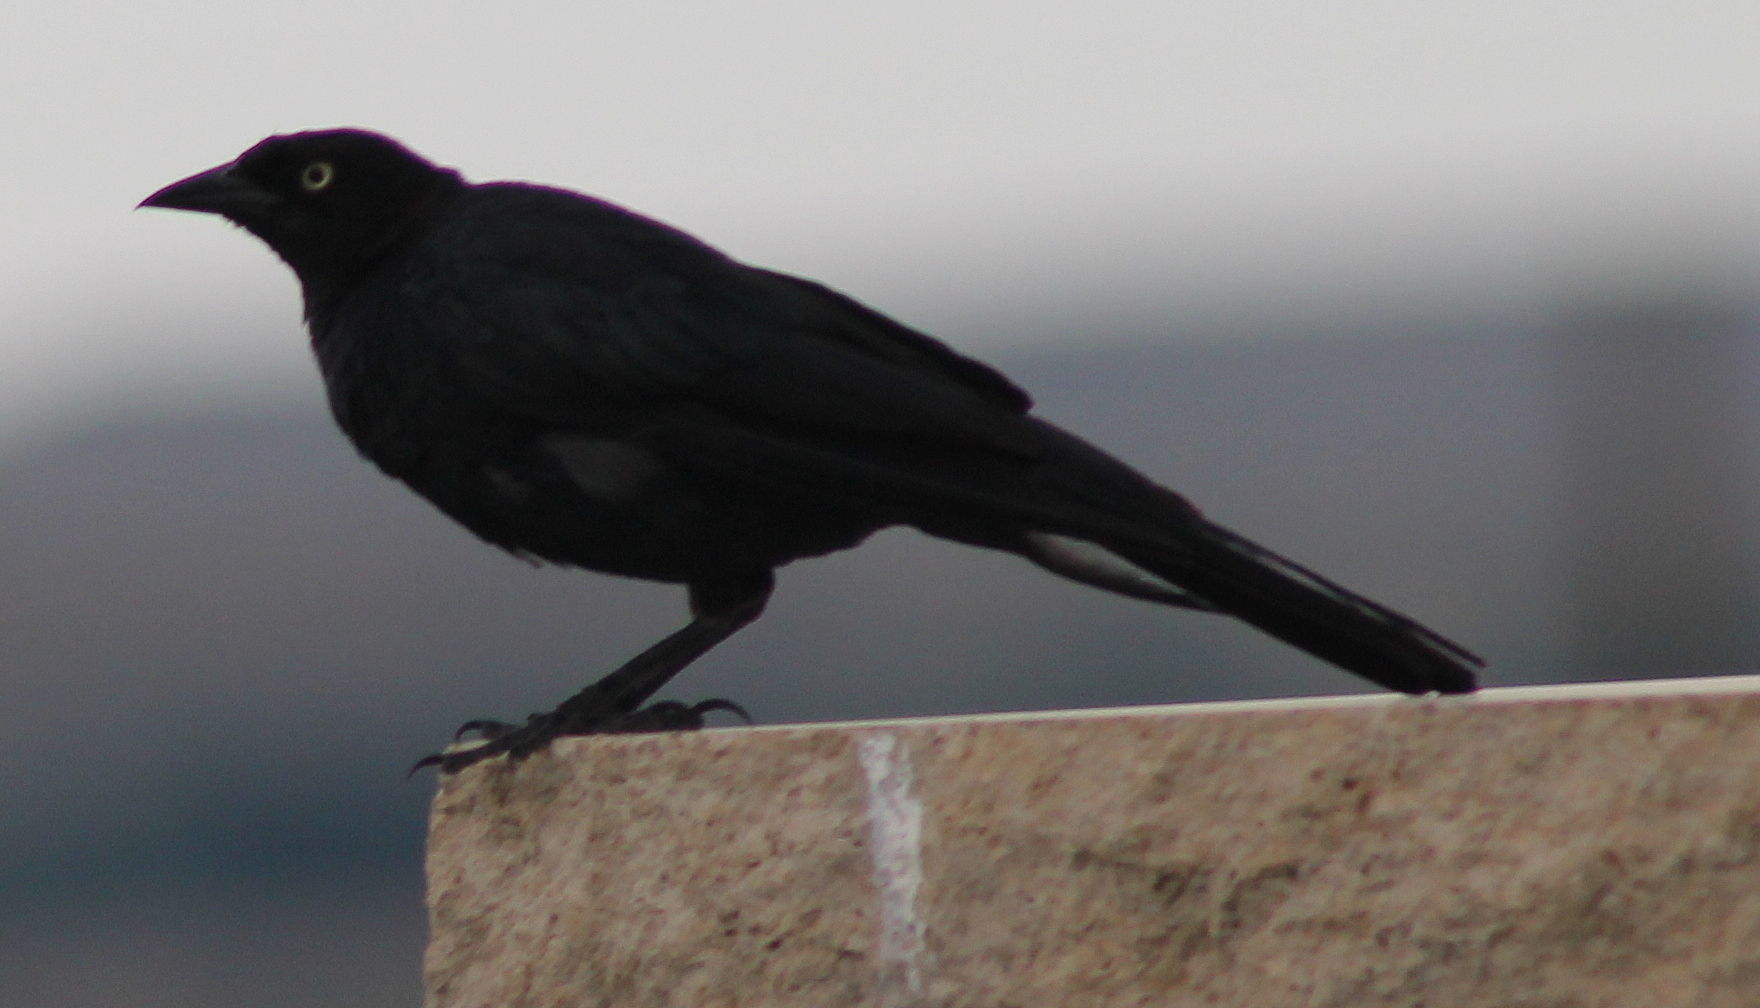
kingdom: Animalia
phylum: Chordata
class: Aves
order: Passeriformes
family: Icteridae
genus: Euphagus
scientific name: Euphagus cyanocephalus
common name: Brewer's blackbird
